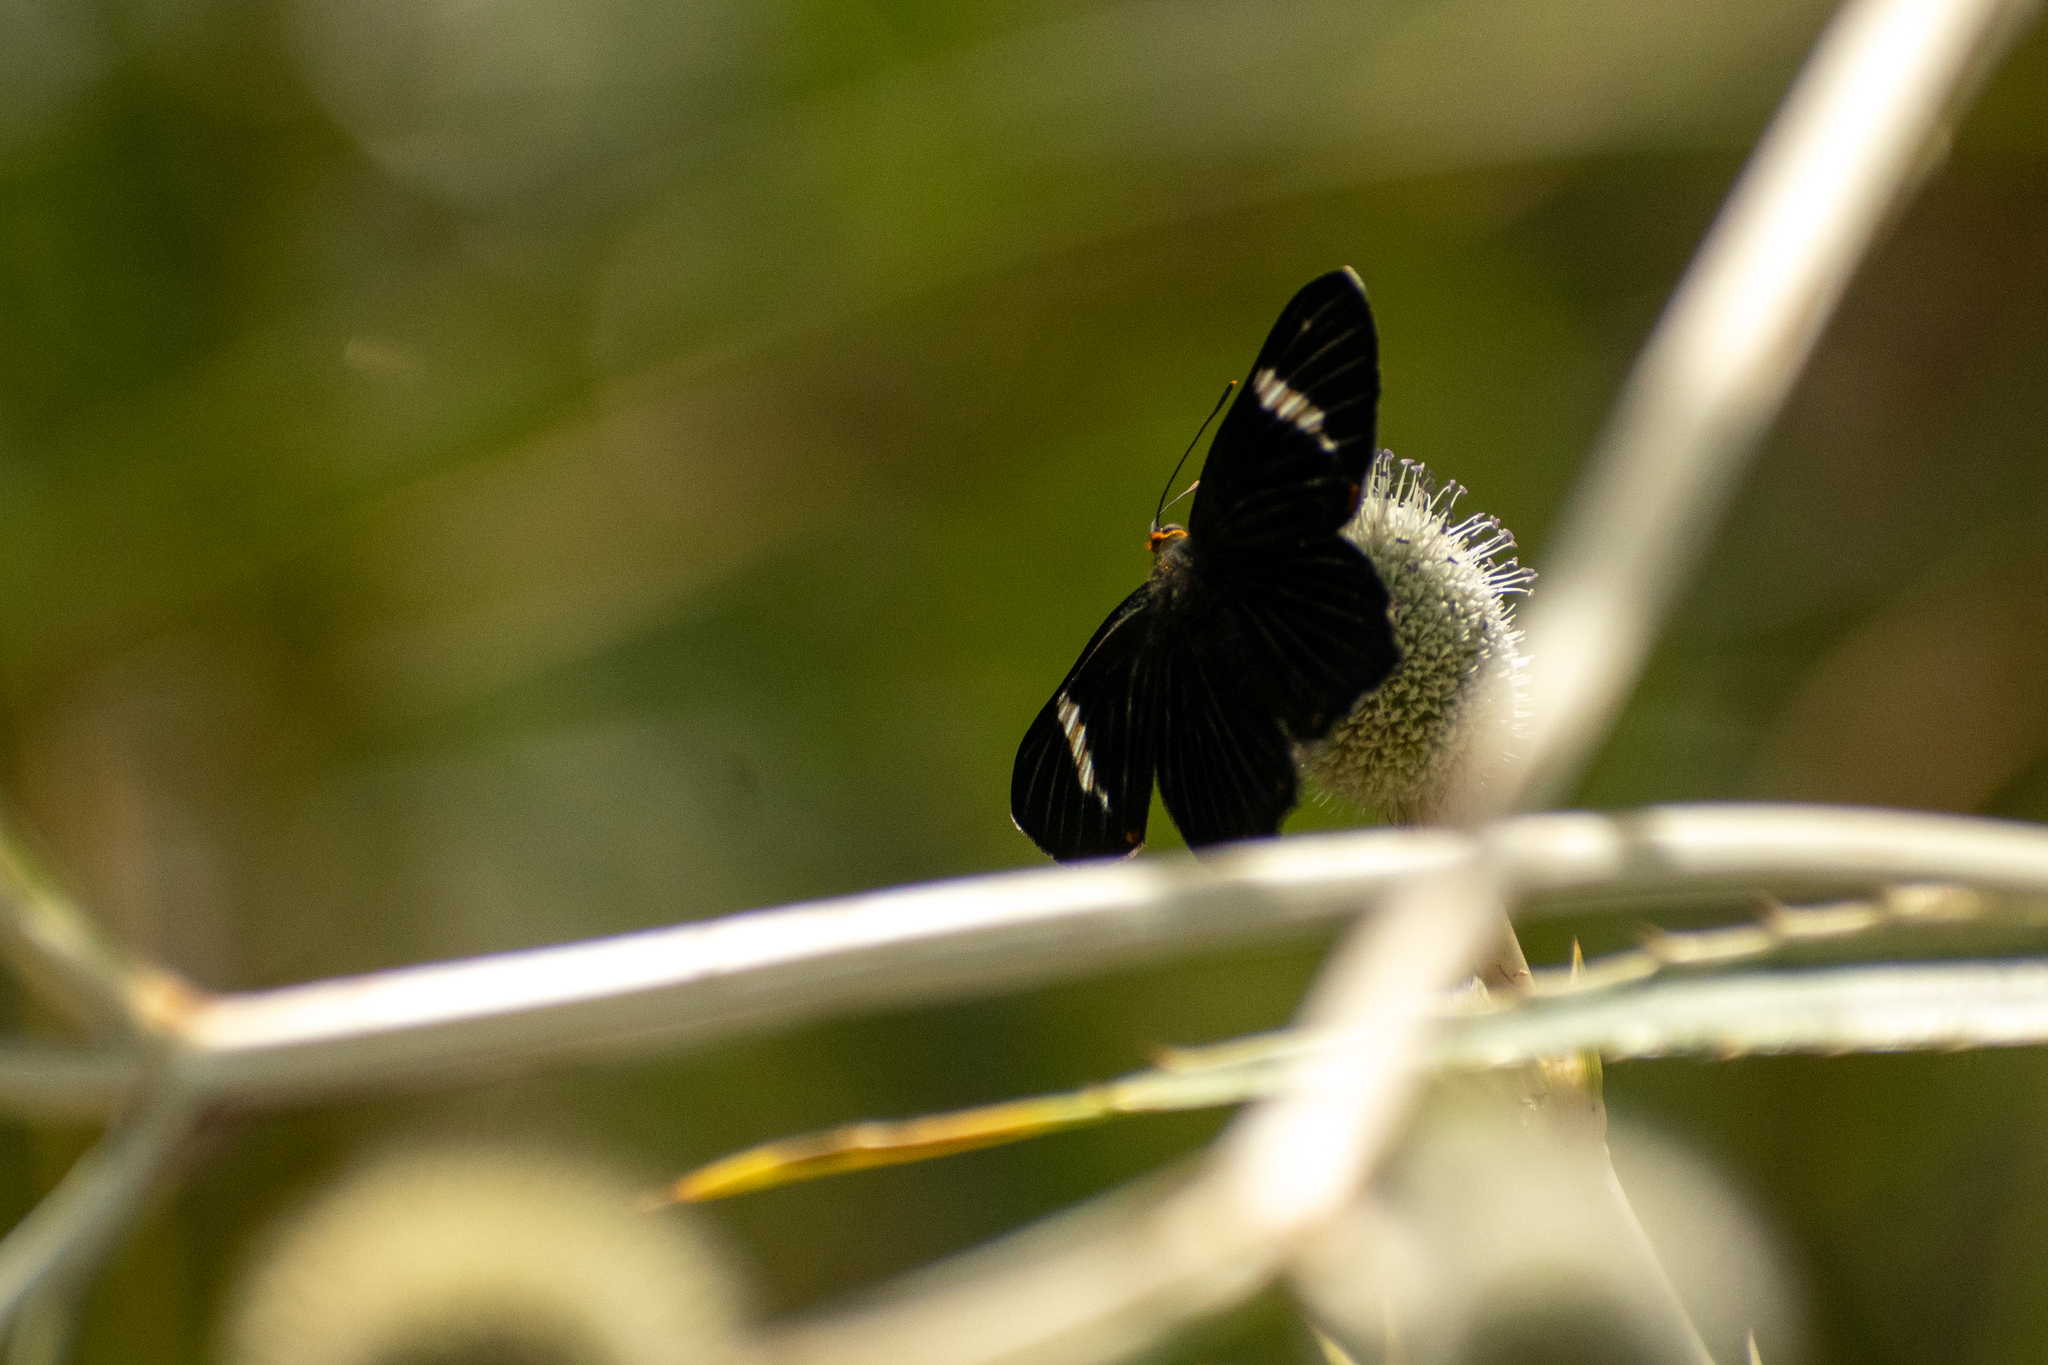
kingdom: Animalia
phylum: Arthropoda
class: Insecta
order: Lepidoptera
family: Riodinidae
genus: Riodina
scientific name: Riodina lycisca
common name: Lycisca metalmark
